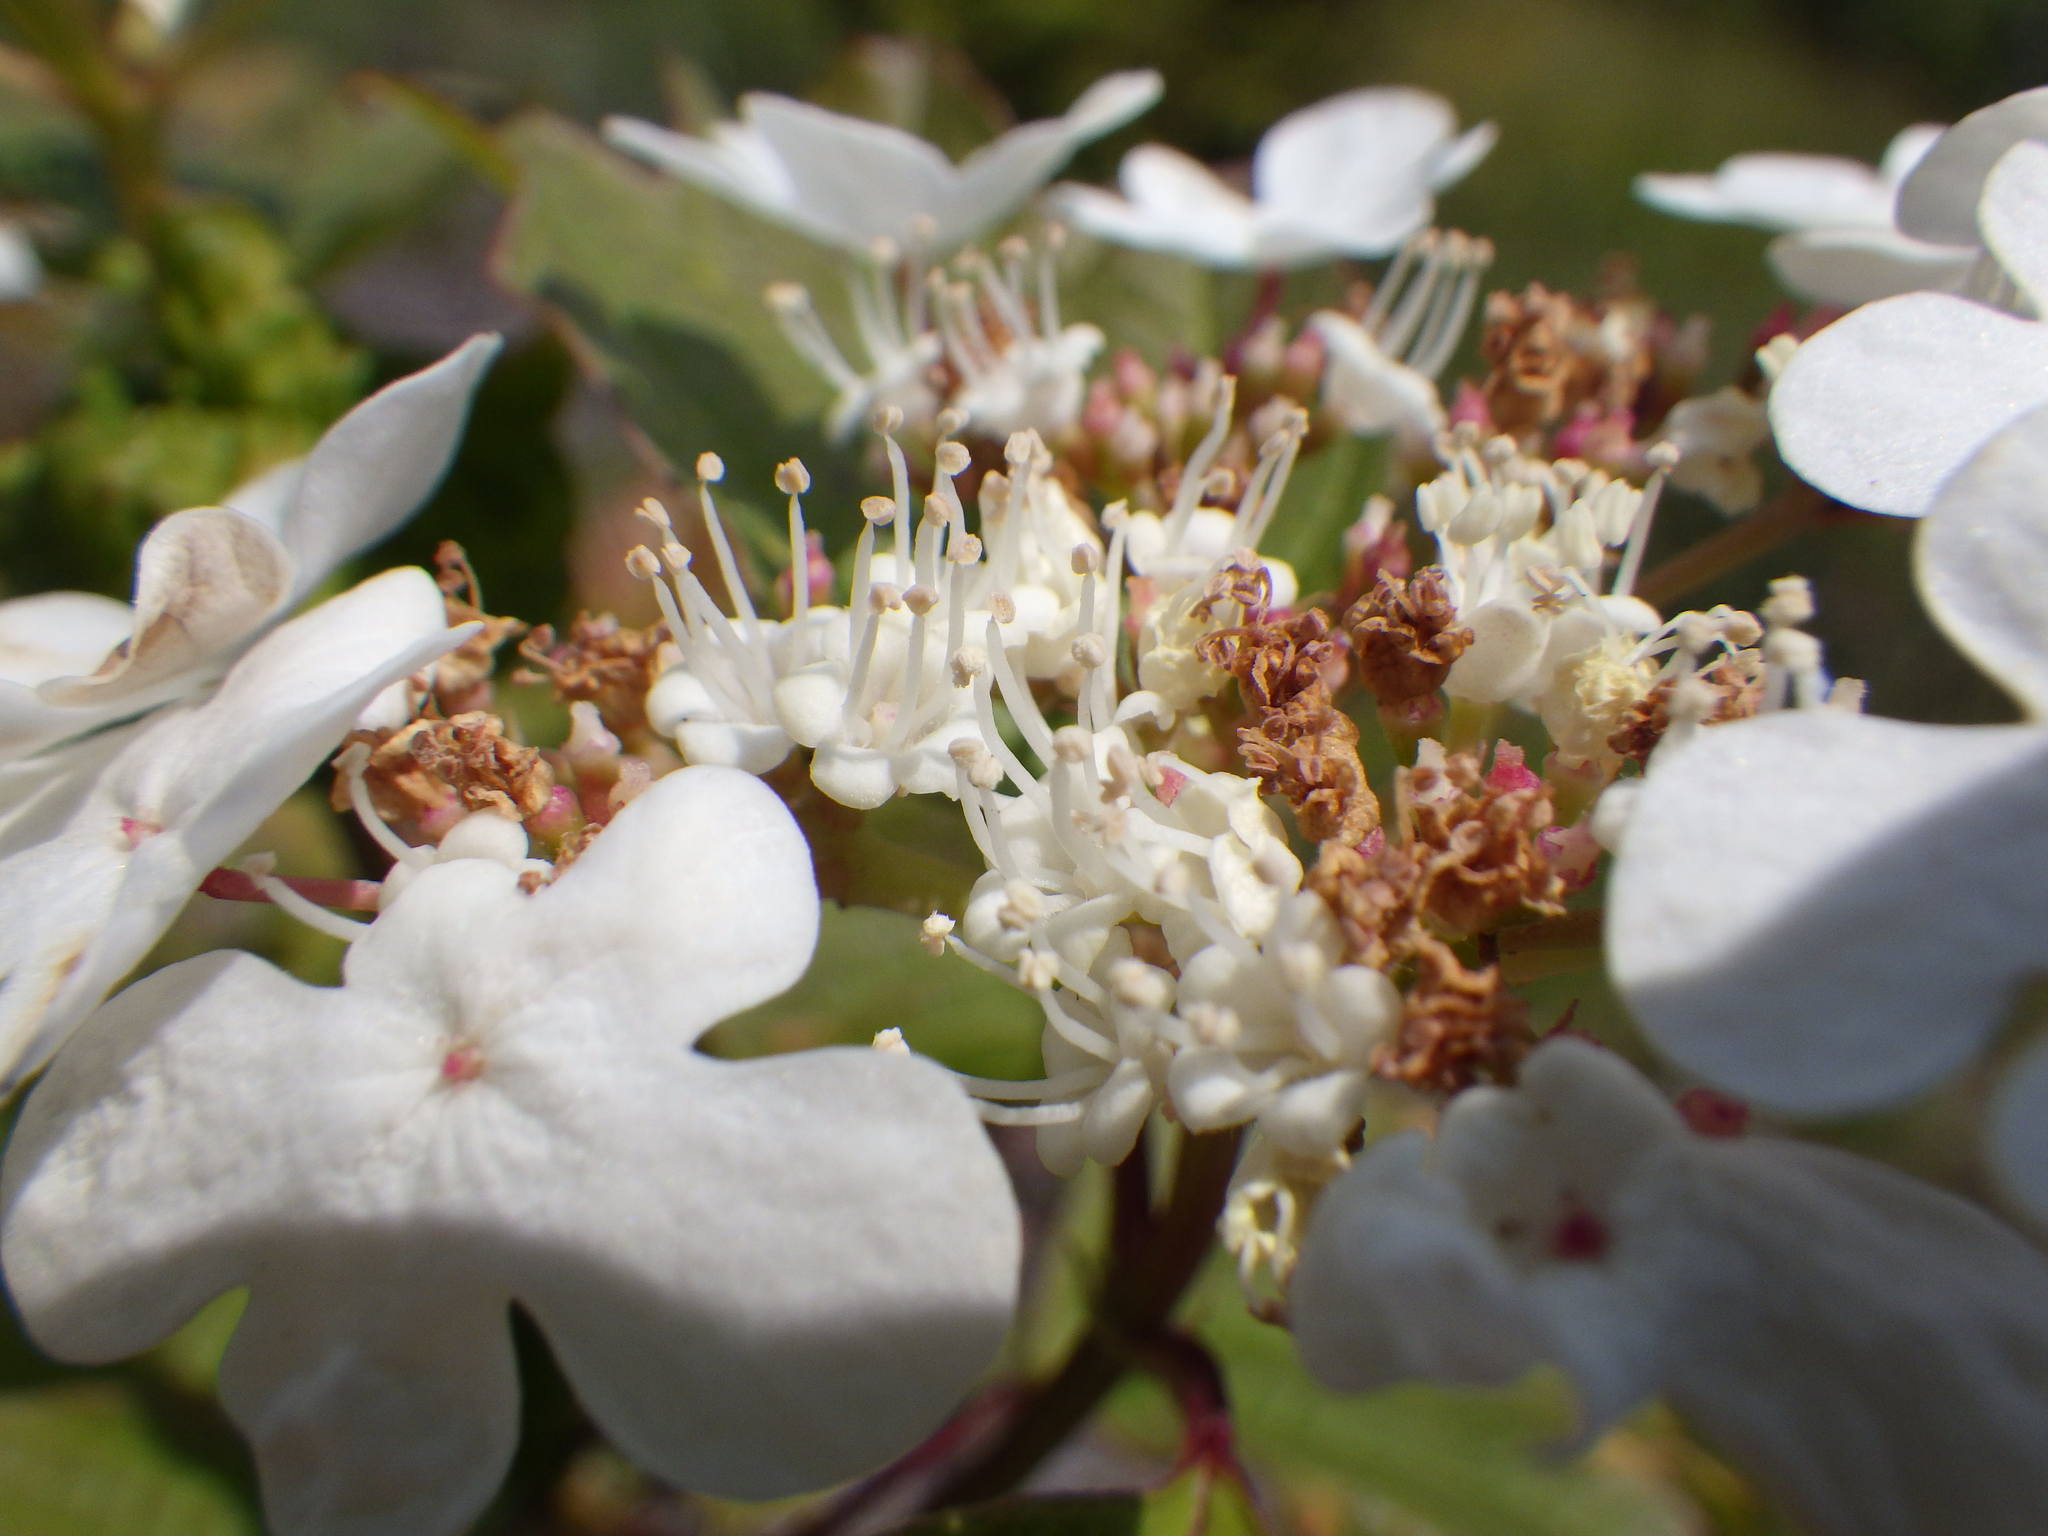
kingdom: Plantae
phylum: Tracheophyta
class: Magnoliopsida
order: Dipsacales
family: Viburnaceae
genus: Viburnum
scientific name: Viburnum opulus
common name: Guelder-rose
